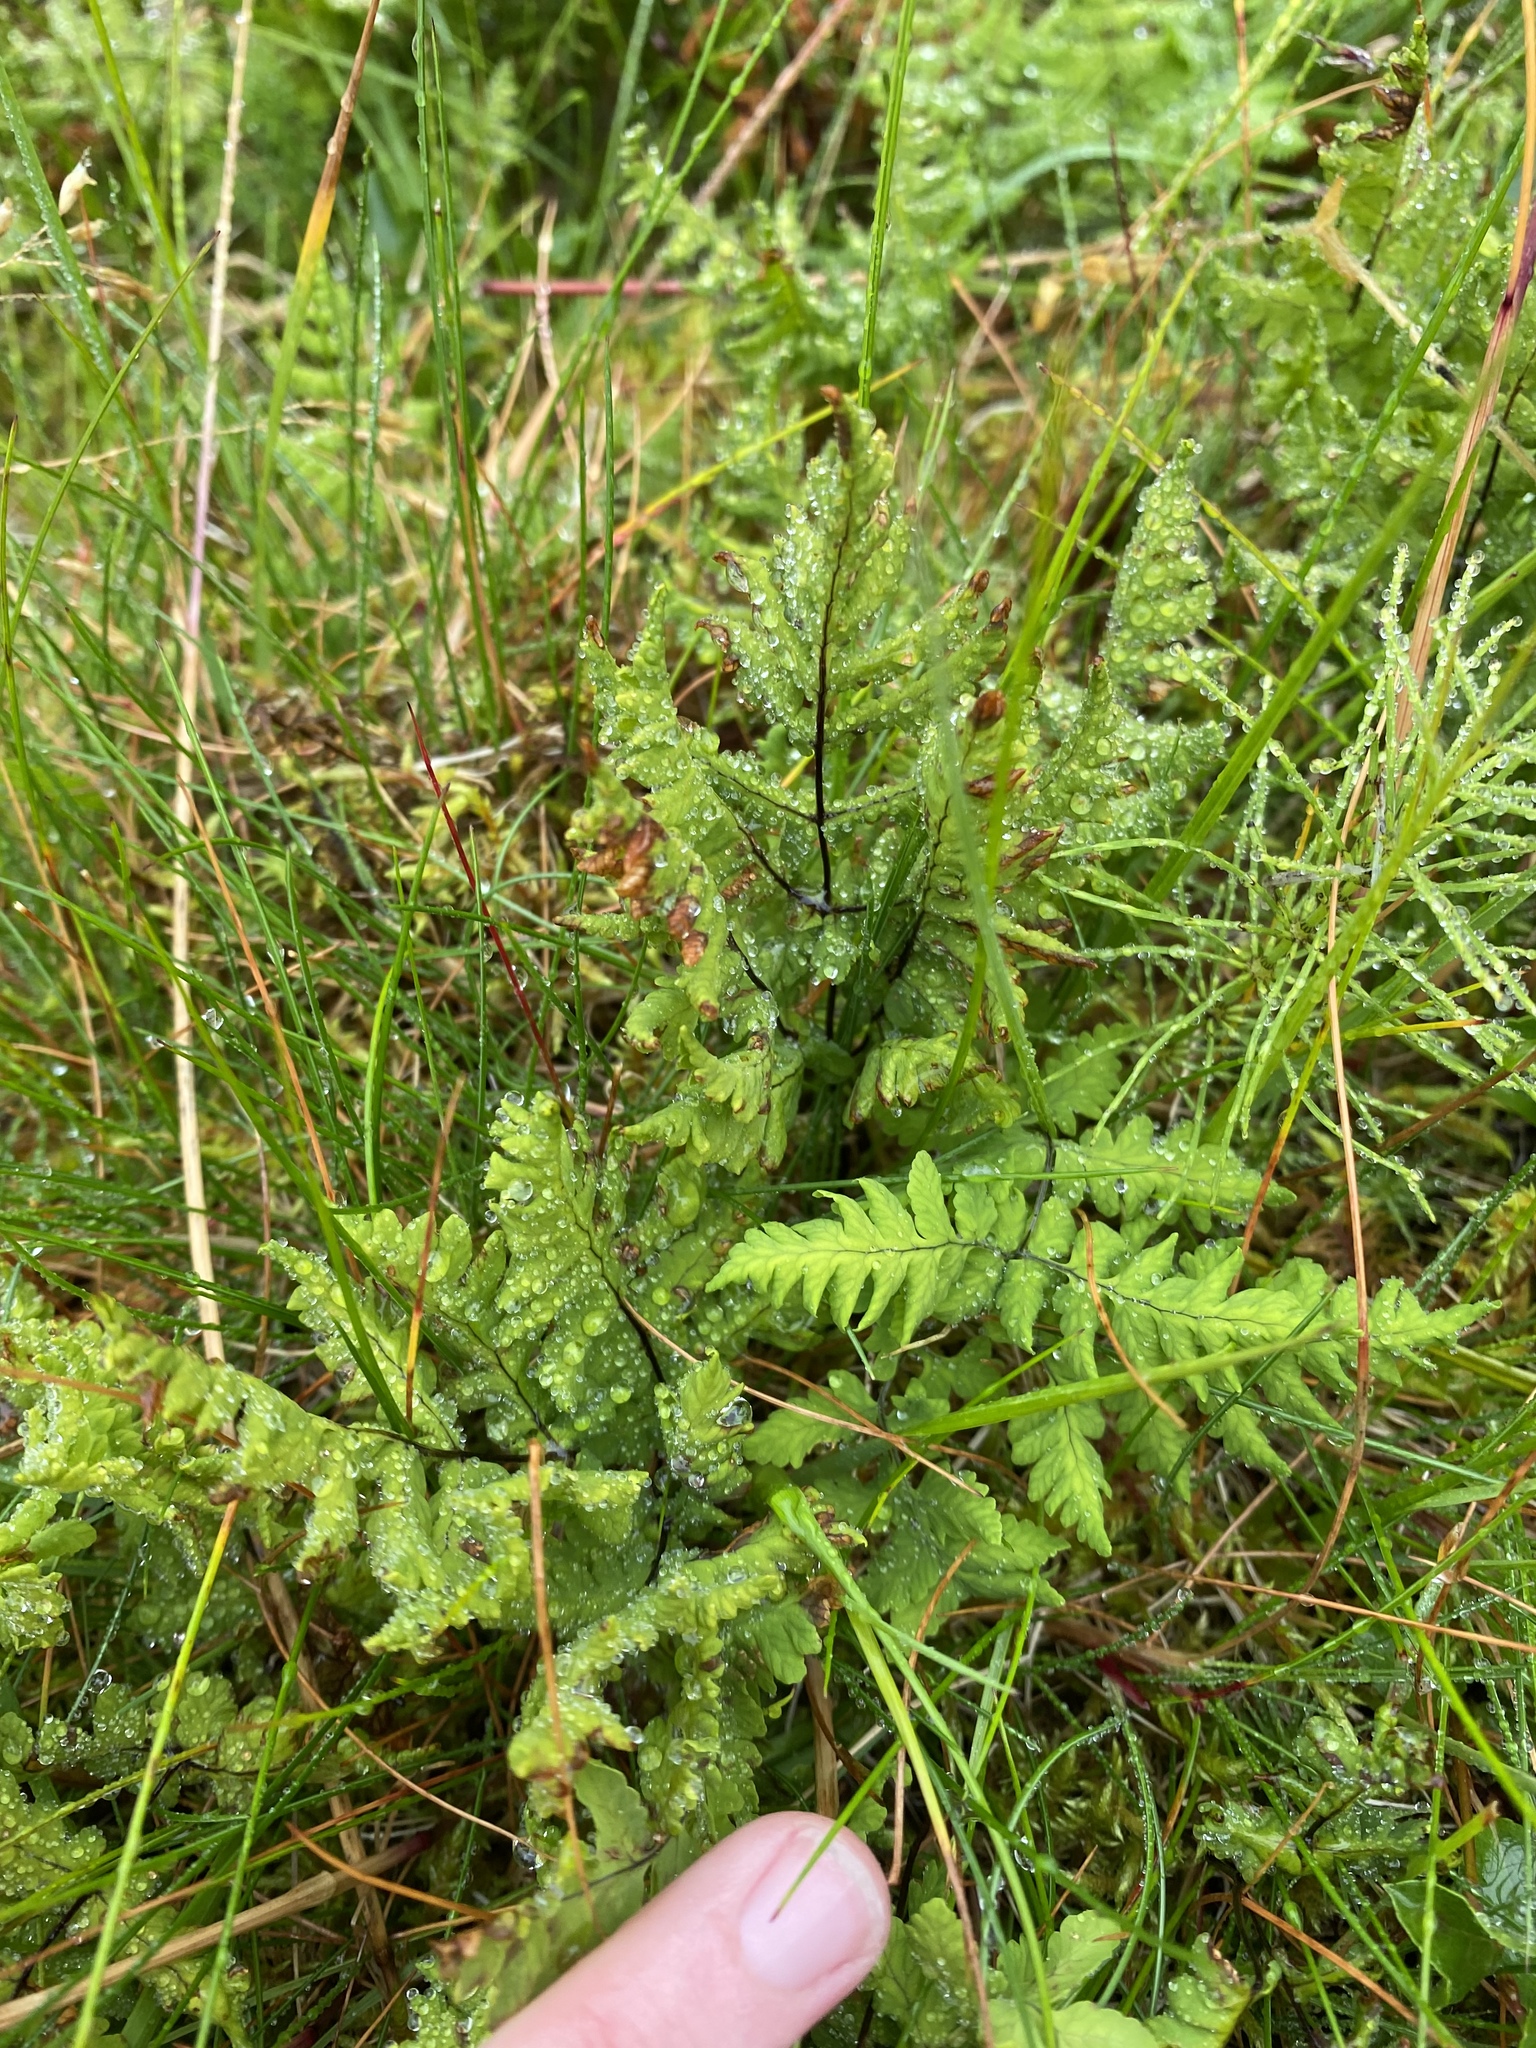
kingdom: Plantae
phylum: Tracheophyta
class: Polypodiopsida
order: Polypodiales
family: Cystopteridaceae
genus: Gymnocarpium
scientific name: Gymnocarpium dryopteris
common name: Oak fern
